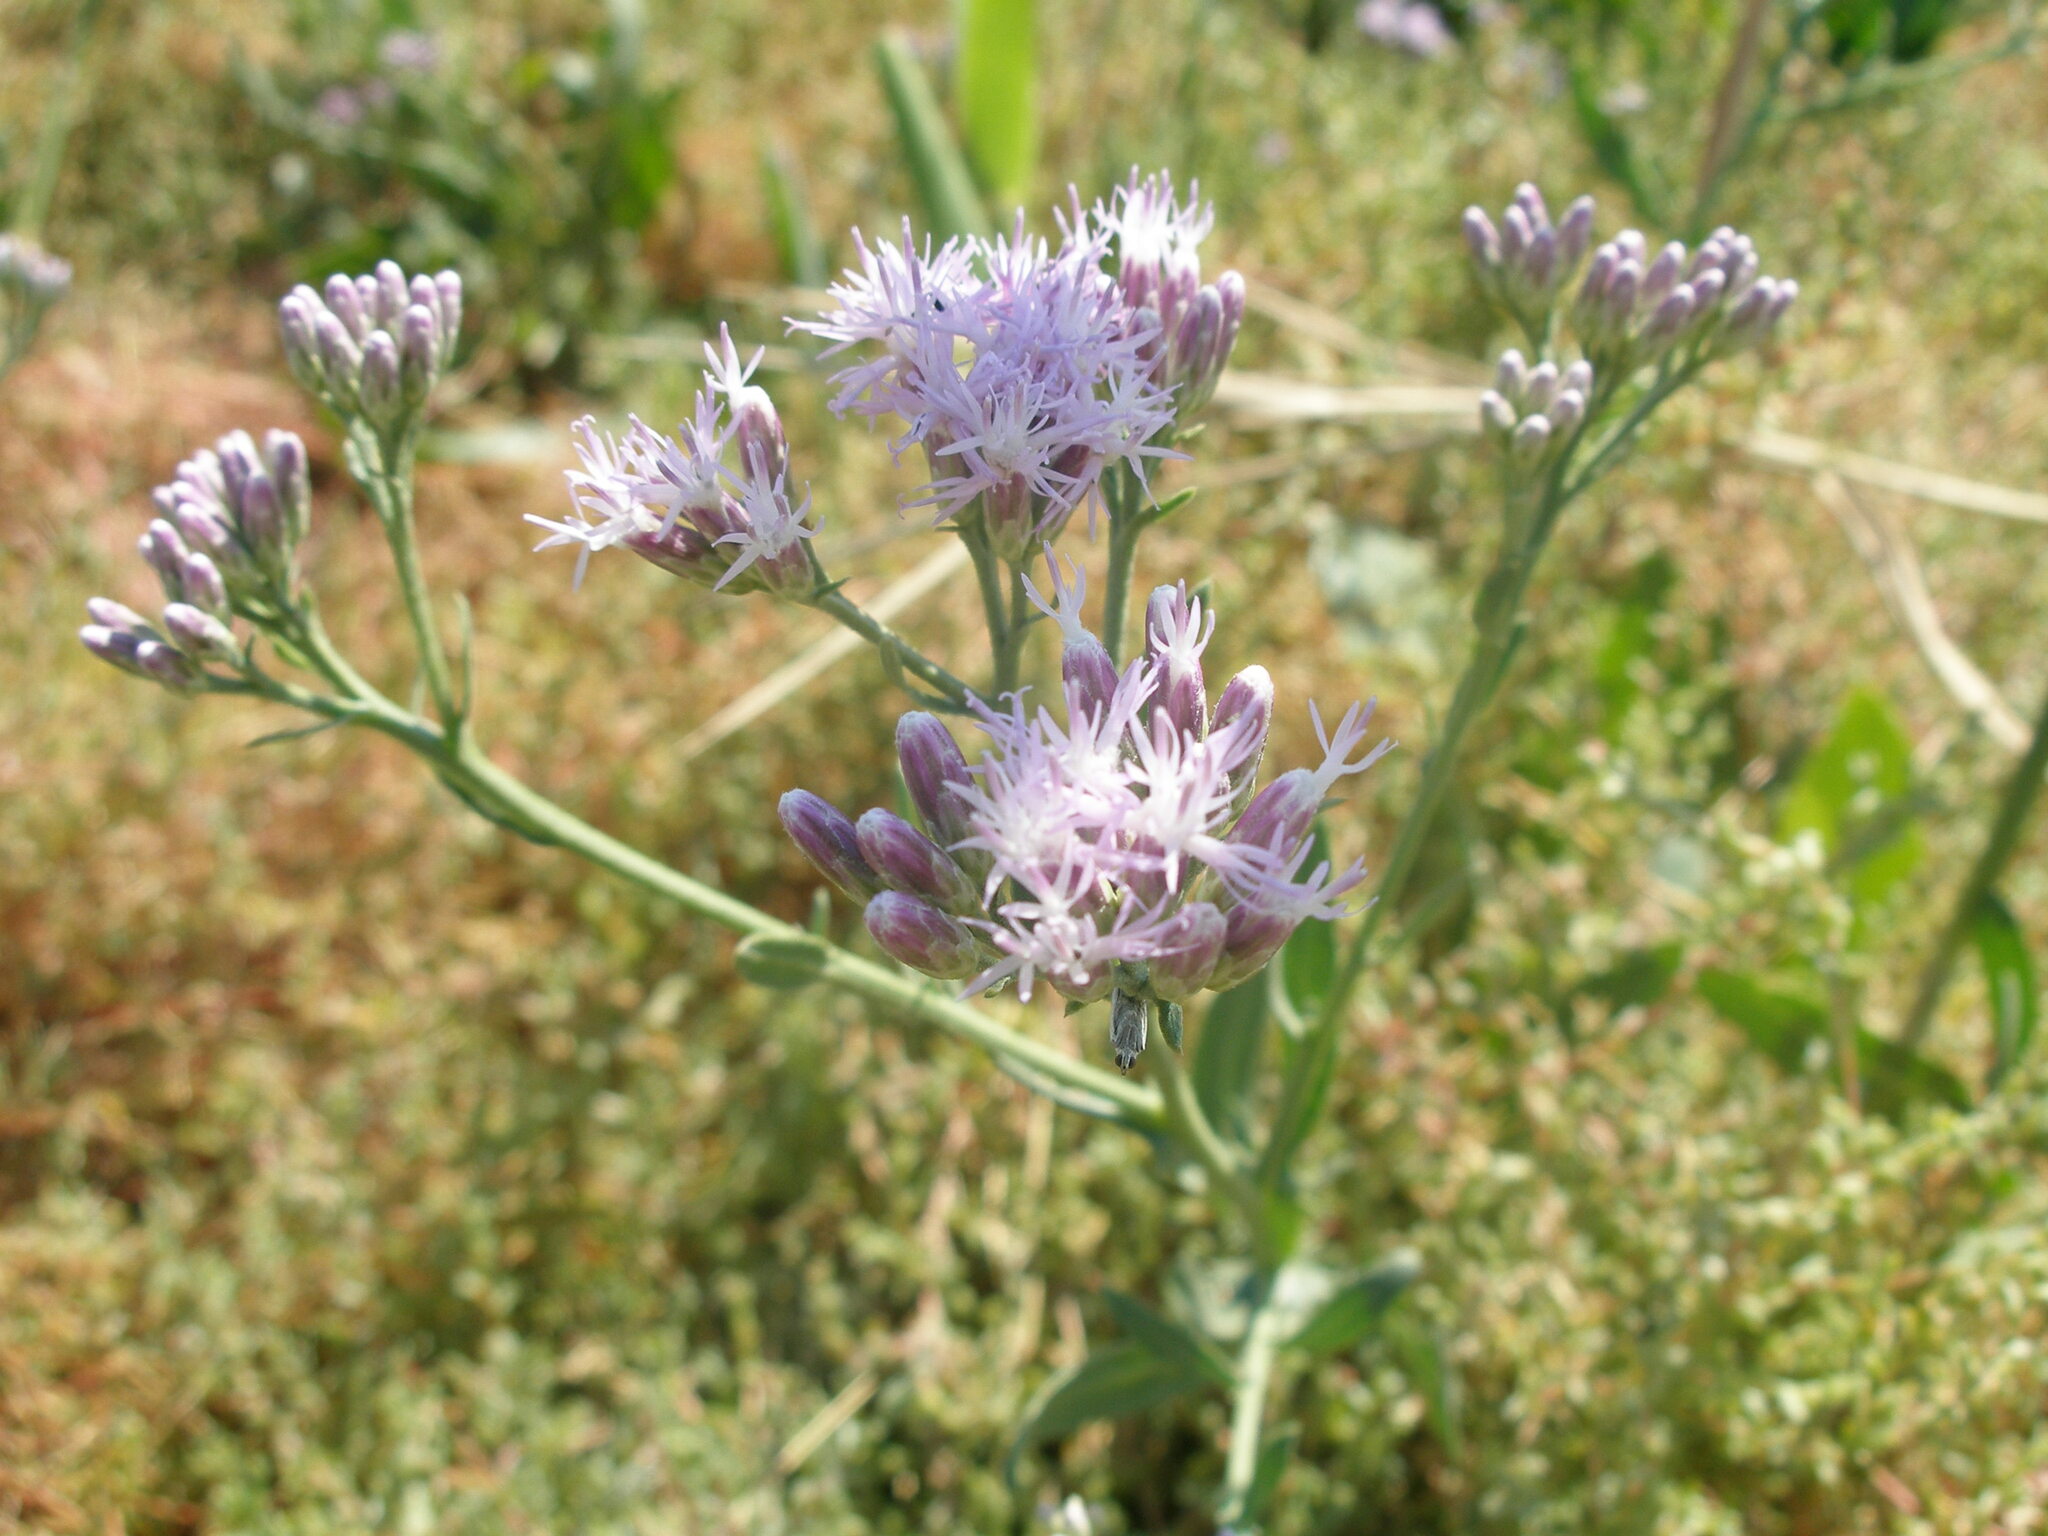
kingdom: Plantae
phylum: Tracheophyta
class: Magnoliopsida
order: Asterales
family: Asteraceae
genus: Saussurea
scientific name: Saussurea salsa
